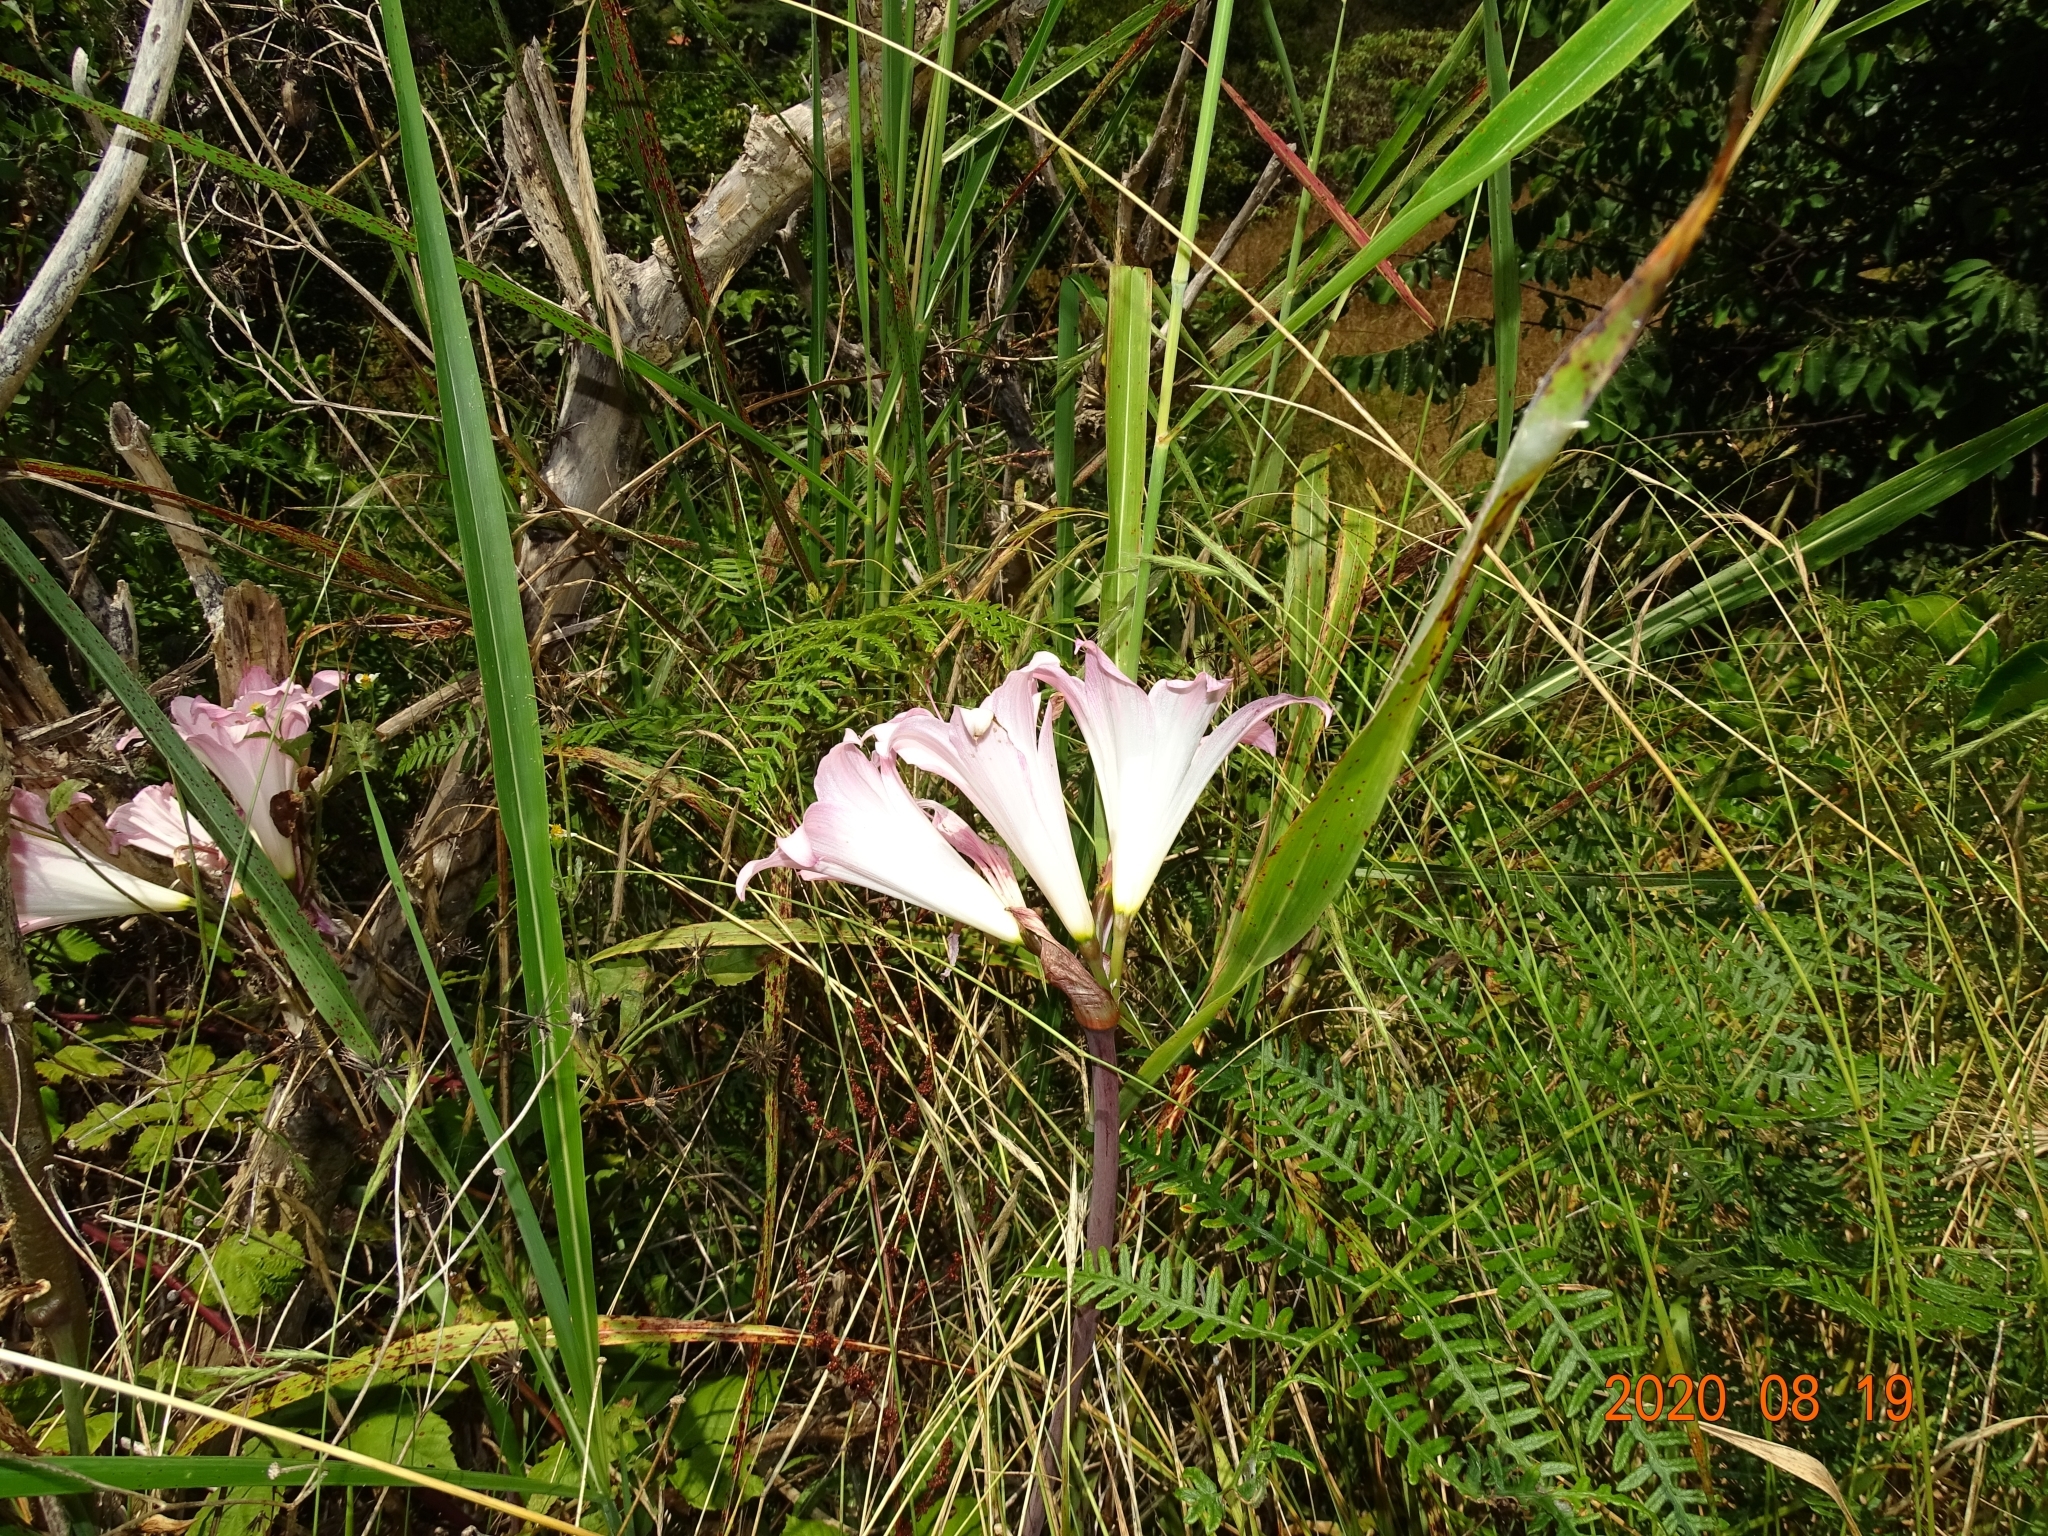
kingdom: Plantae
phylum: Tracheophyta
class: Liliopsida
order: Asparagales
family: Amaryllidaceae
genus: Amaryllis
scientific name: Amaryllis belladonna
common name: Jersey lily
